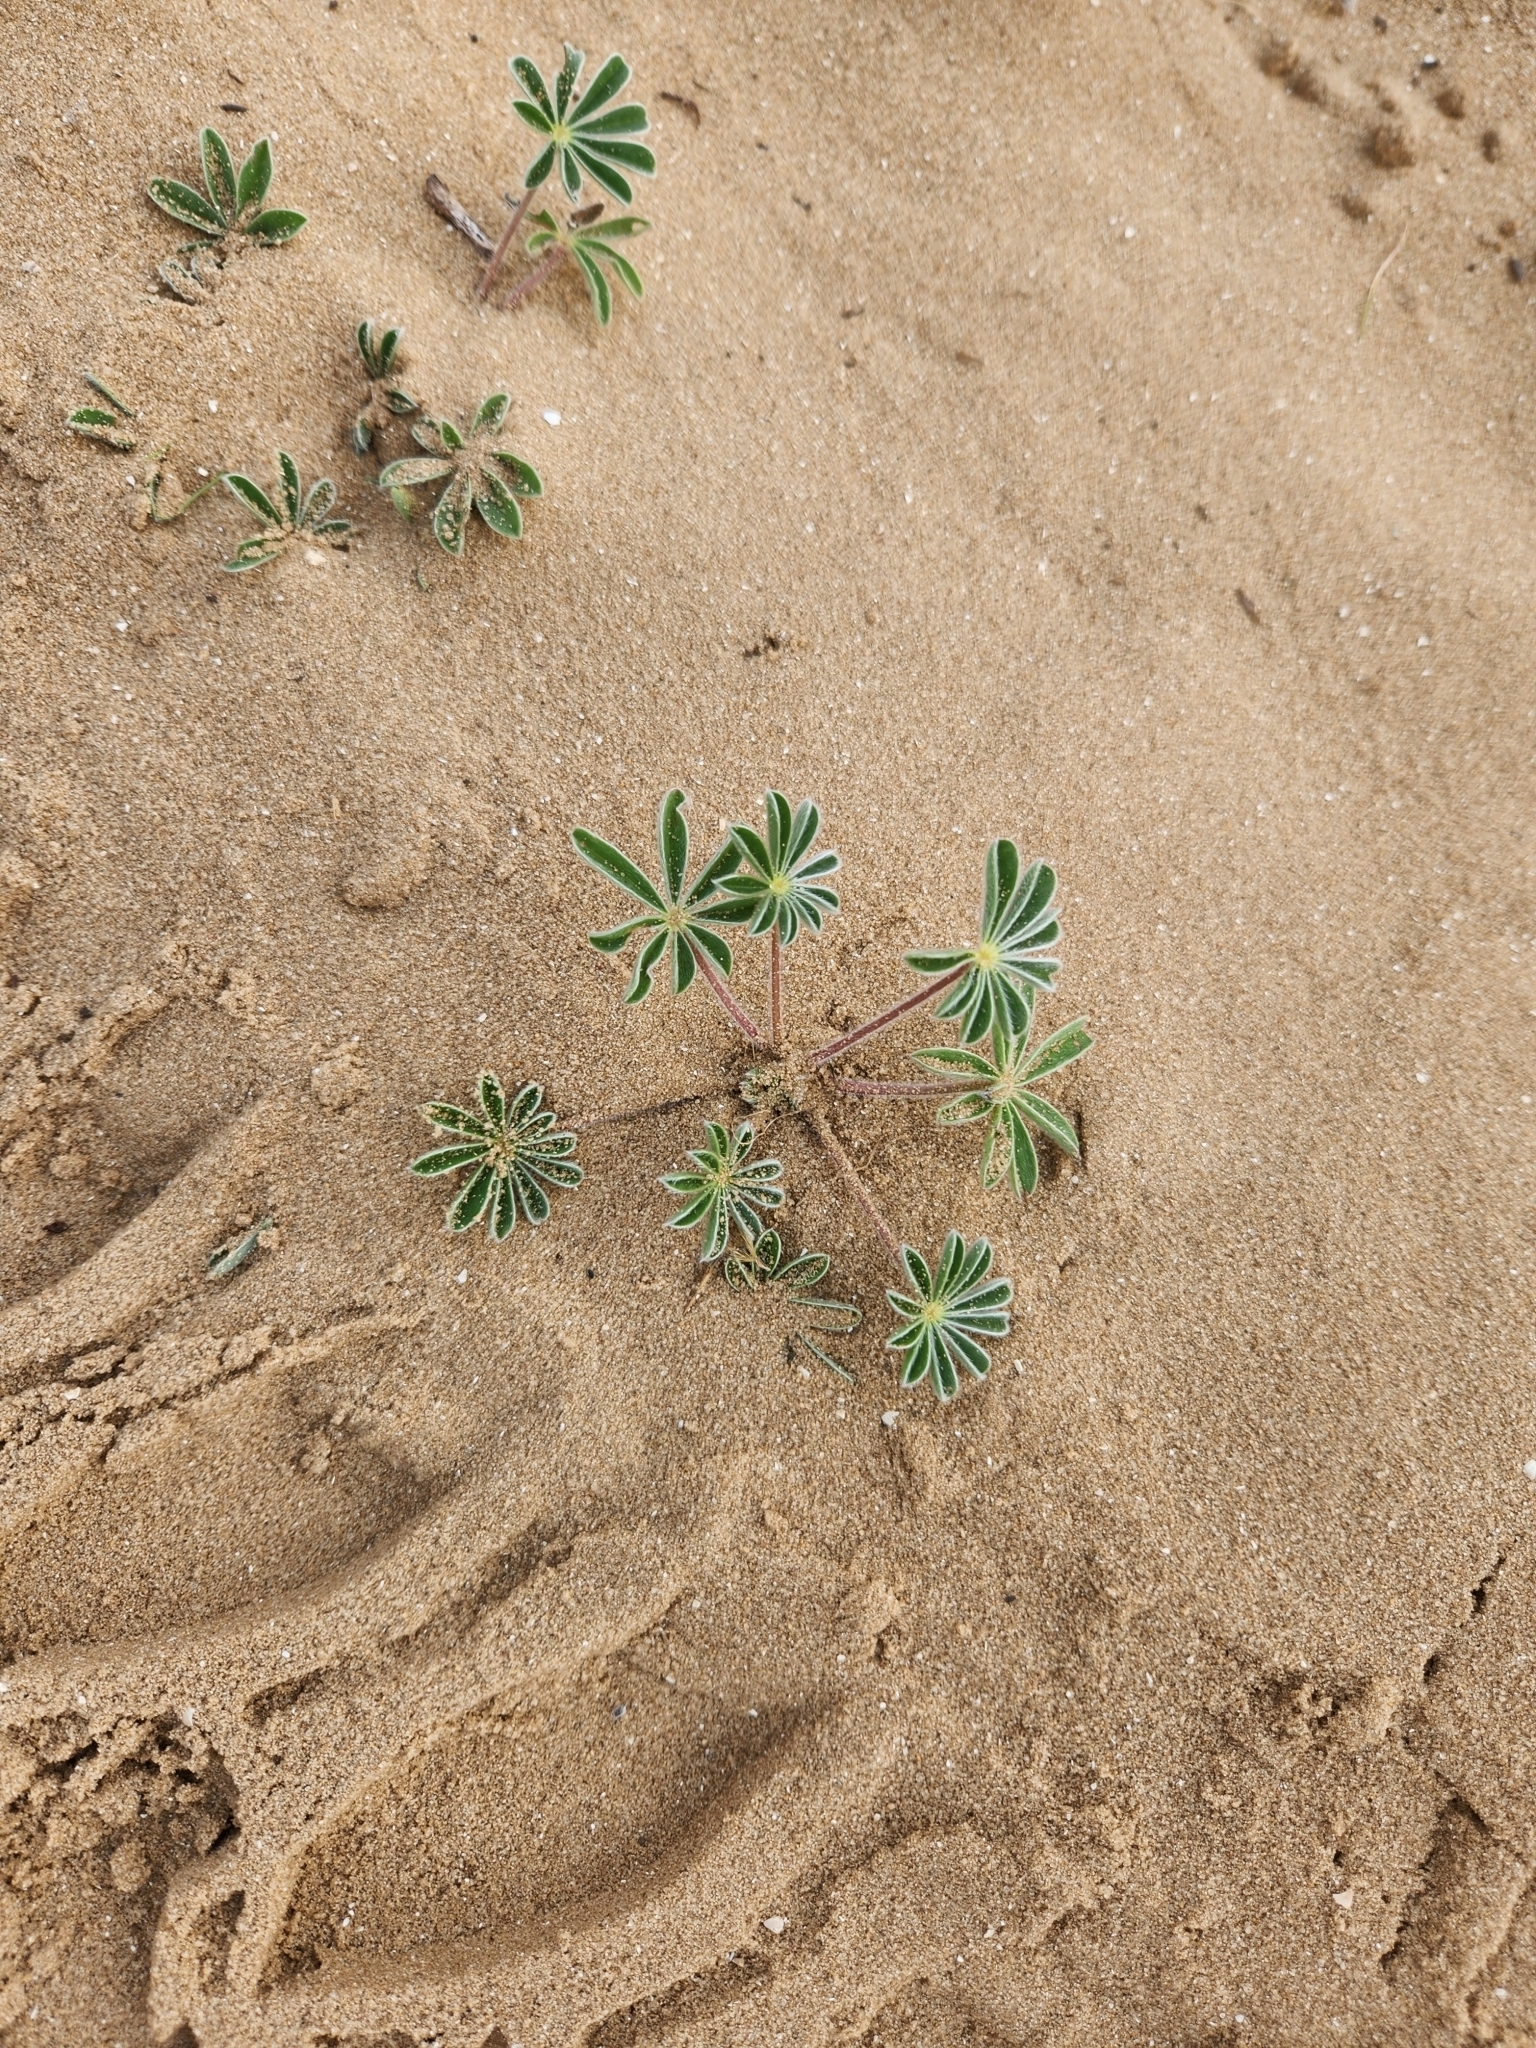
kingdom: Plantae
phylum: Tracheophyta
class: Magnoliopsida
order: Fabales
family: Fabaceae
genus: Lupinus
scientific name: Lupinus palaestinus
